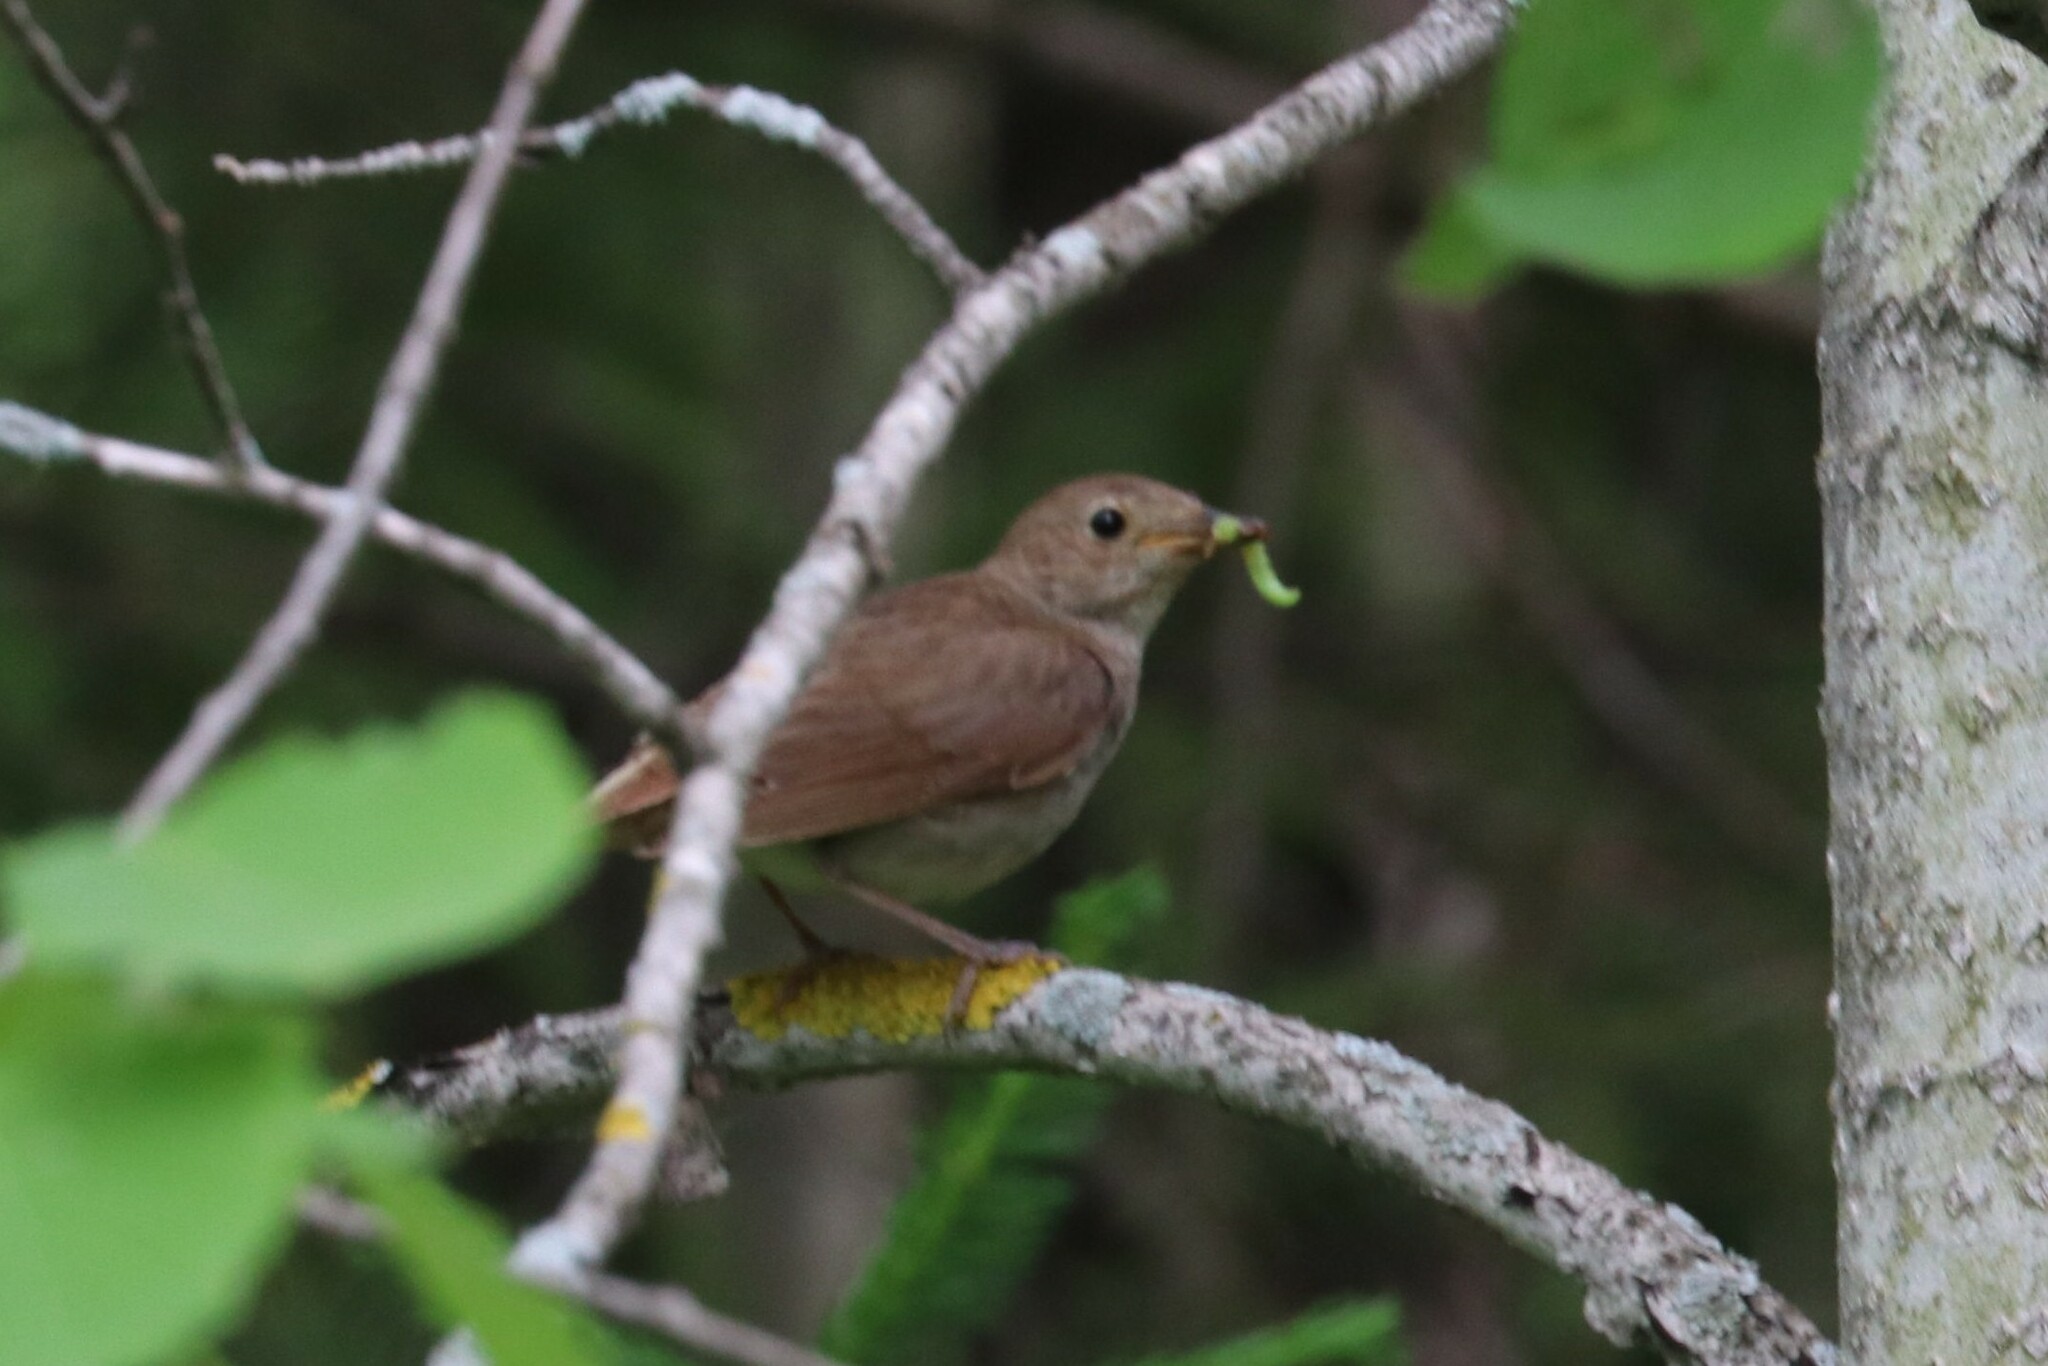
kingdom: Animalia
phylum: Chordata
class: Aves
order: Passeriformes
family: Muscicapidae
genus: Luscinia
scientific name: Luscinia luscinia
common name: Thrush nightingale
